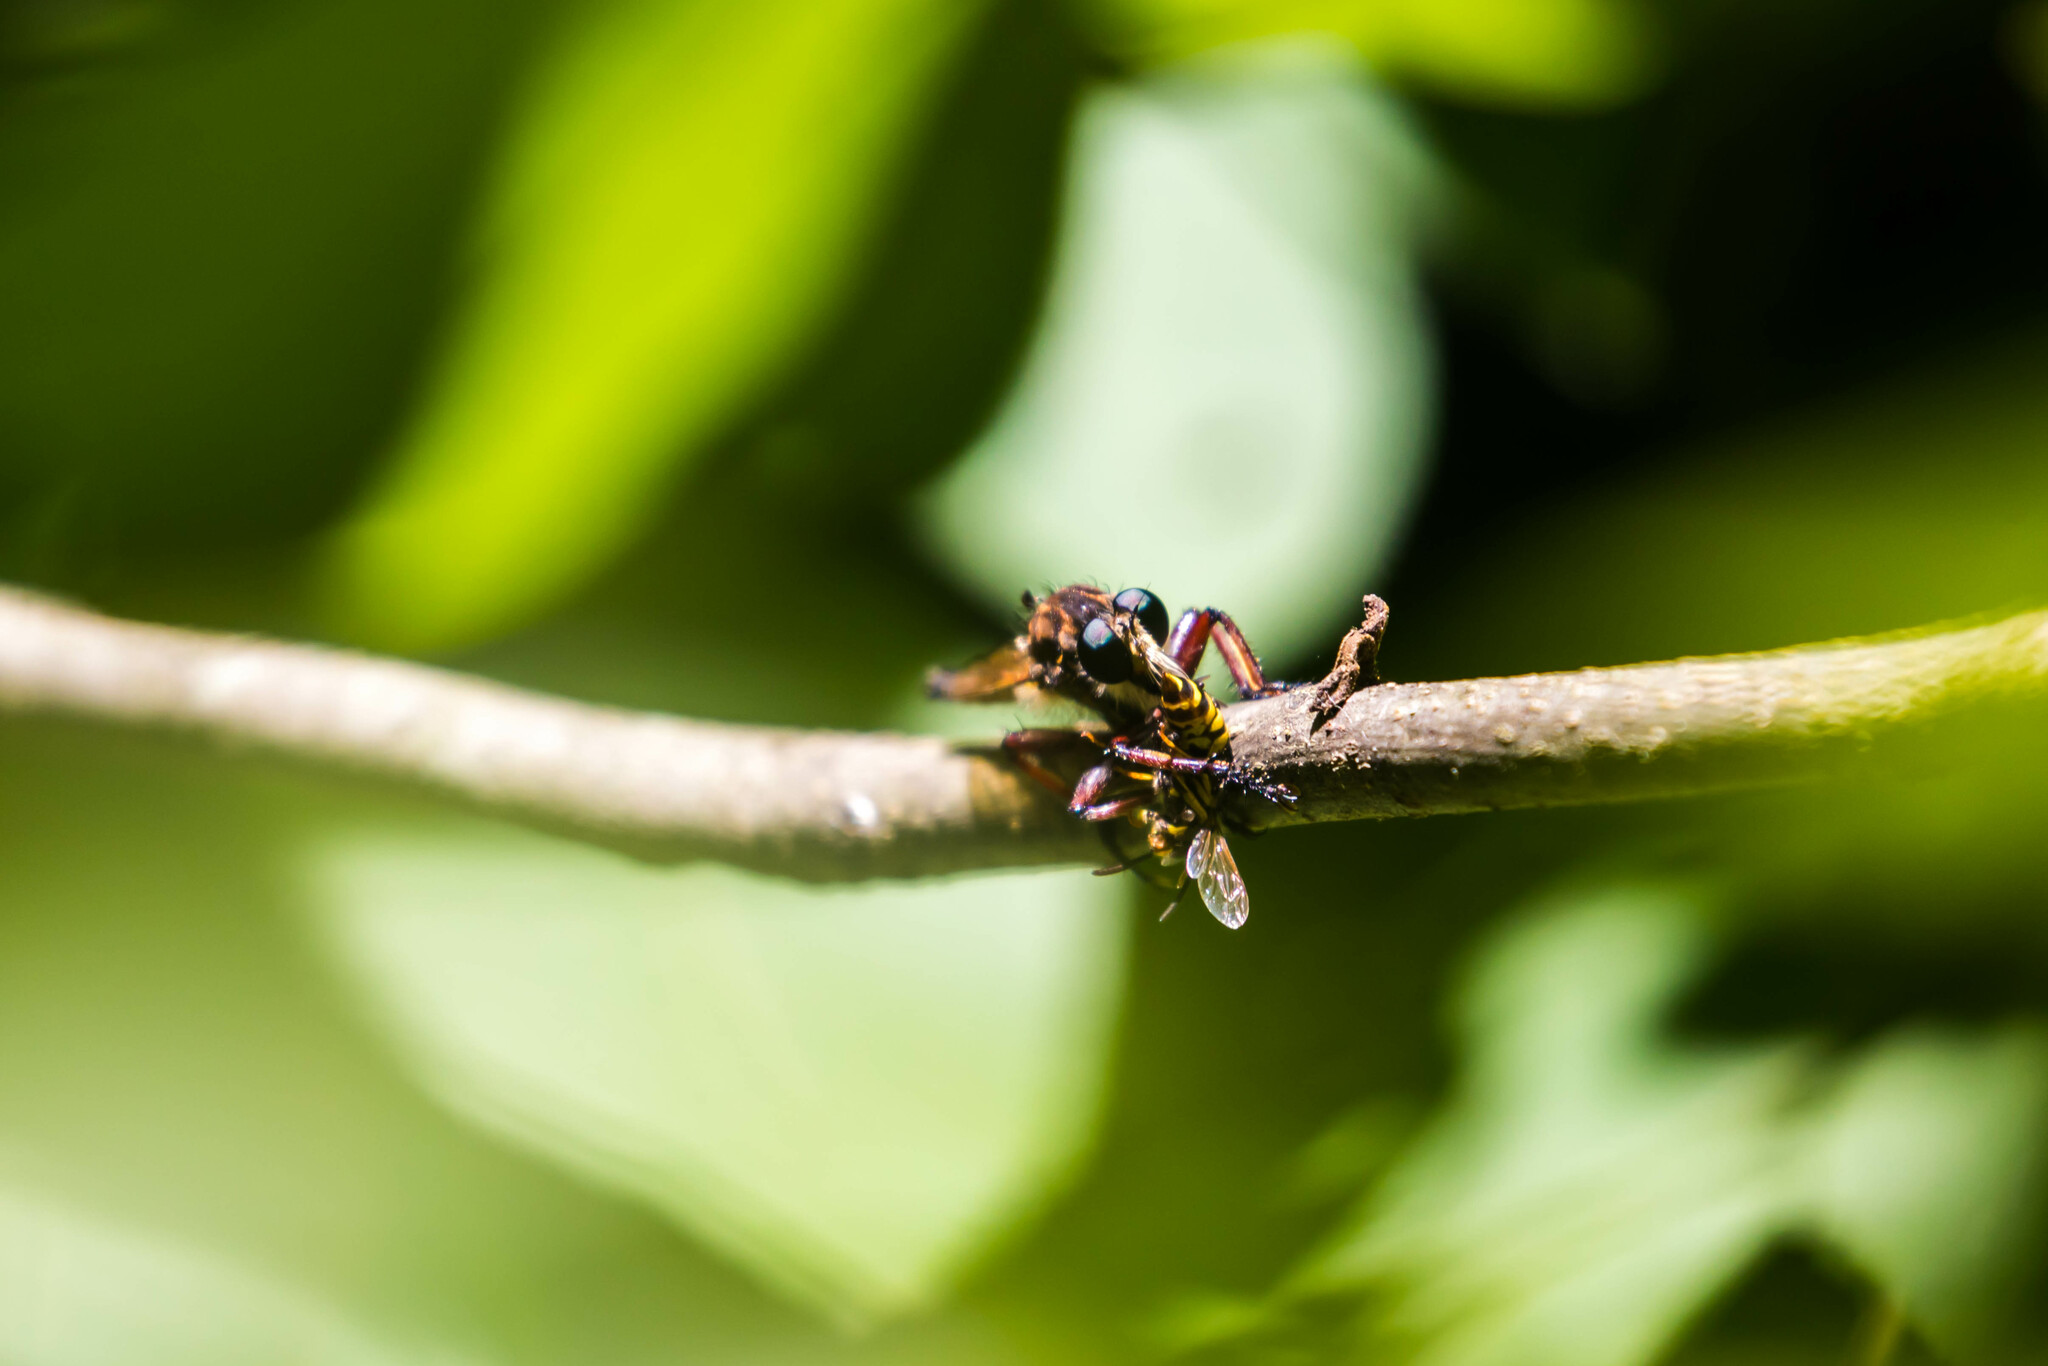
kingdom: Animalia
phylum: Arthropoda
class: Insecta
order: Diptera
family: Asilidae
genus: Promachus
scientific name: Promachus hinei
